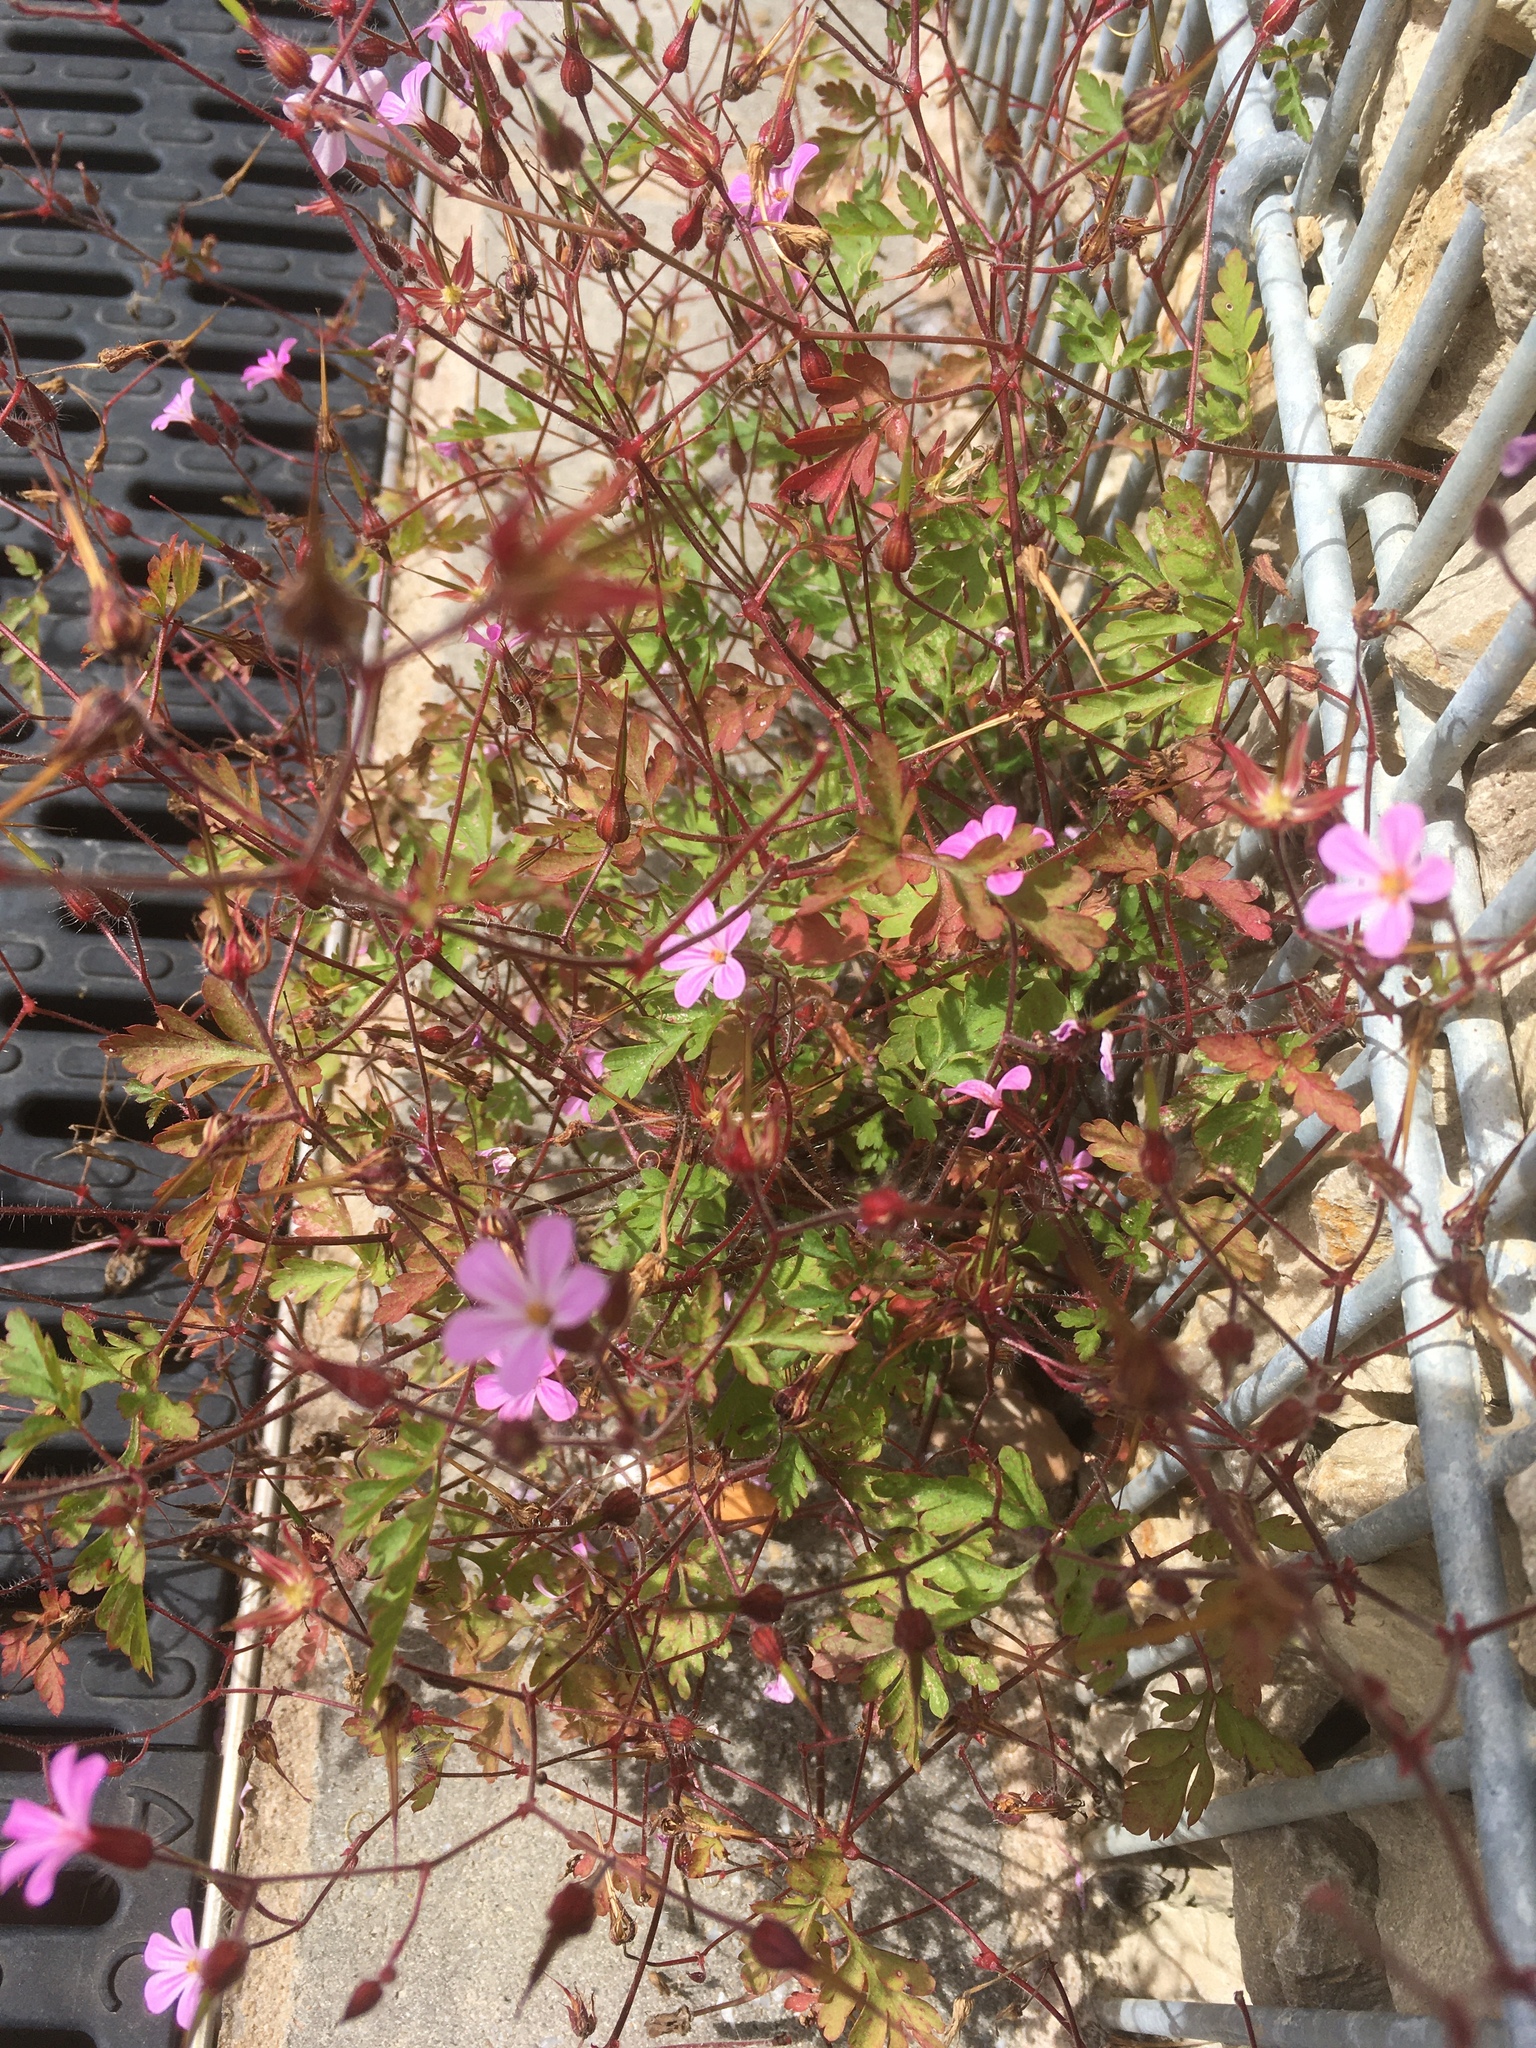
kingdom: Plantae
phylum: Tracheophyta
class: Magnoliopsida
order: Geraniales
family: Geraniaceae
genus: Geranium
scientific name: Geranium robertianum
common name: Herb-robert
